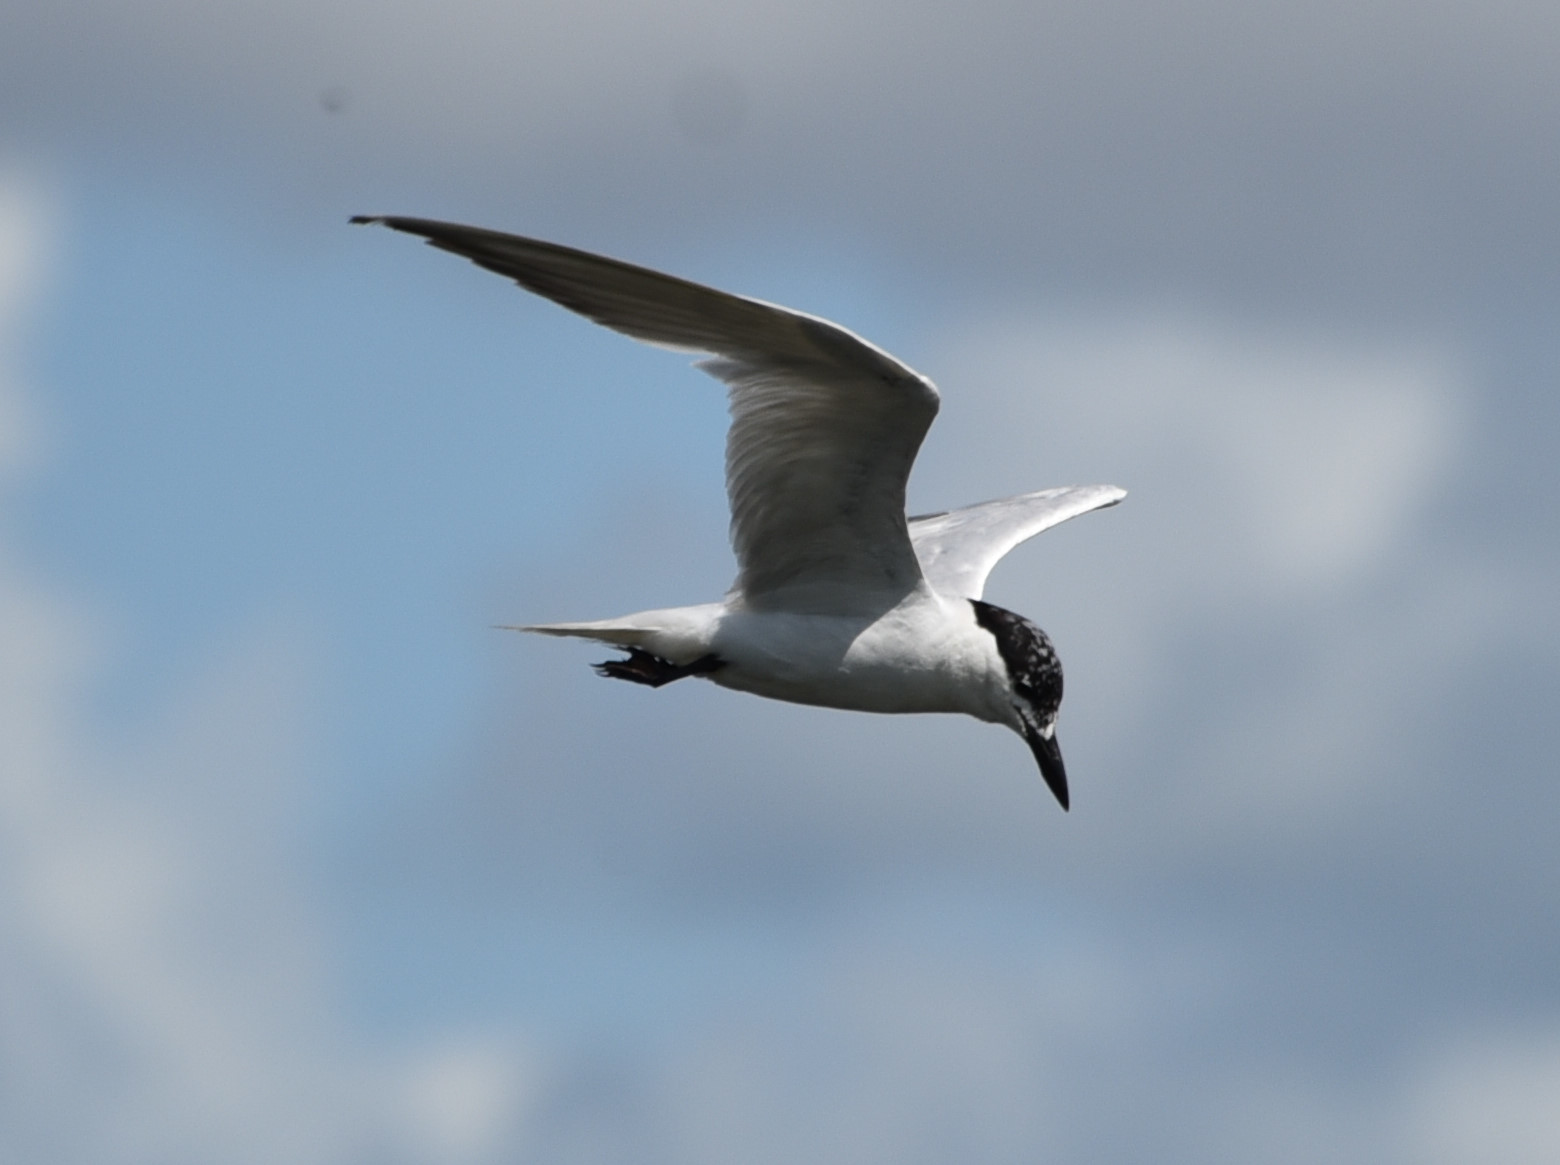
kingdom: Animalia
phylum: Chordata
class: Aves
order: Charadriiformes
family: Laridae
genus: Gelochelidon
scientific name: Gelochelidon nilotica
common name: Gull-billed tern
